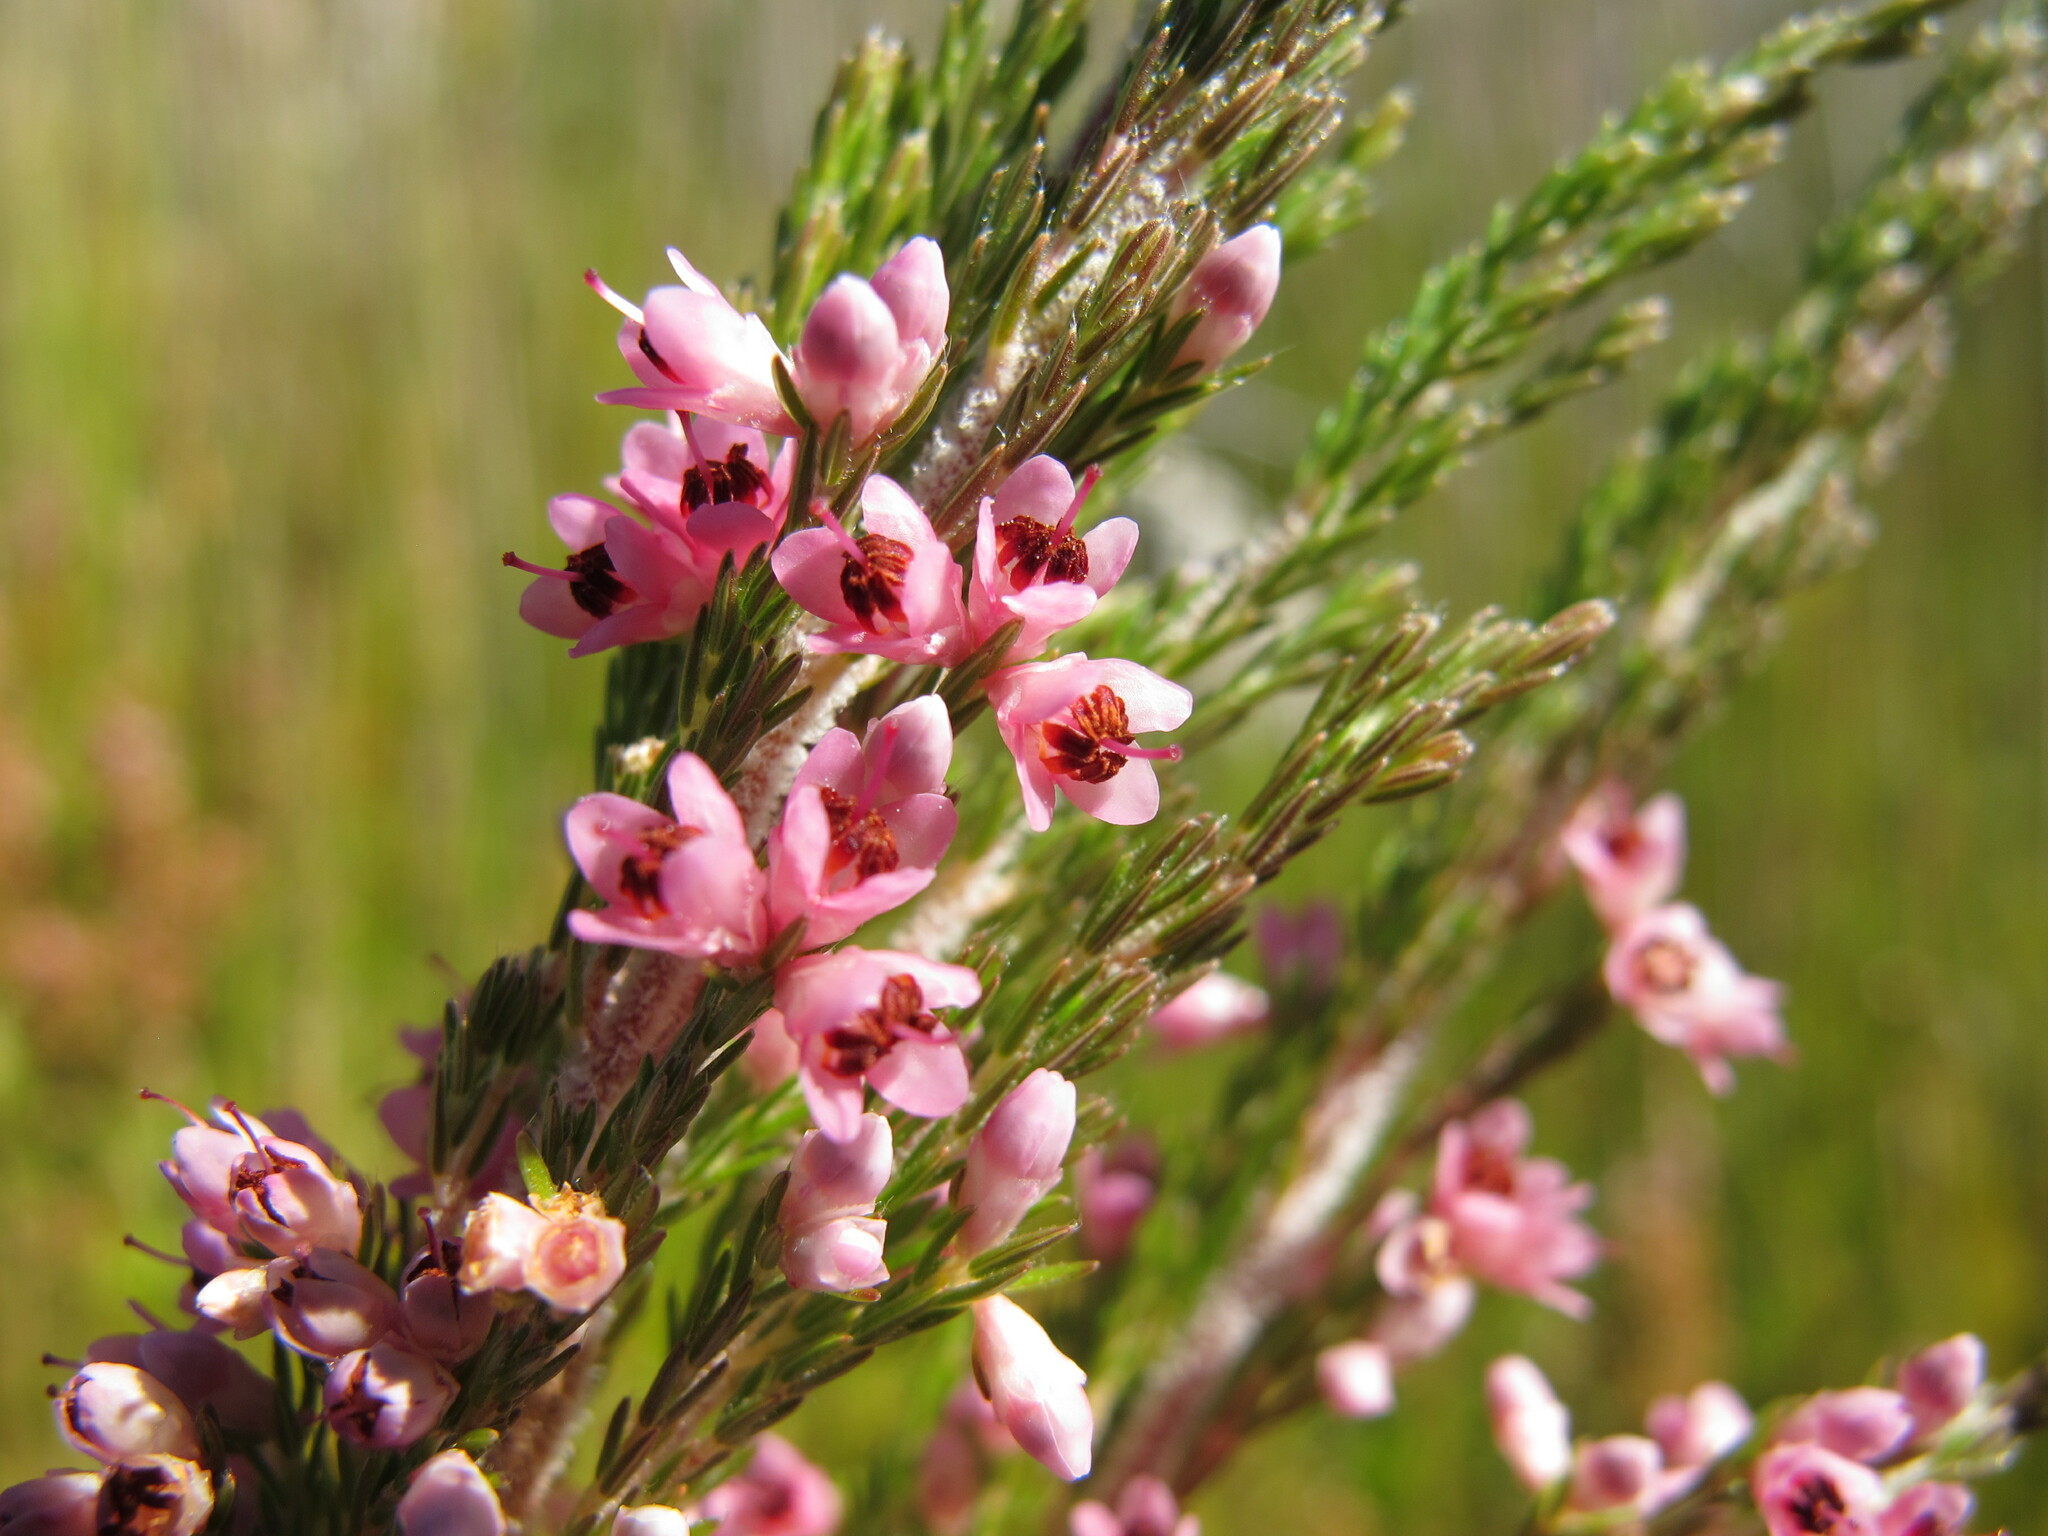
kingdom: Plantae
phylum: Tracheophyta
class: Magnoliopsida
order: Ericales
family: Ericaceae
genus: Erica
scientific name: Erica jacksoniana
